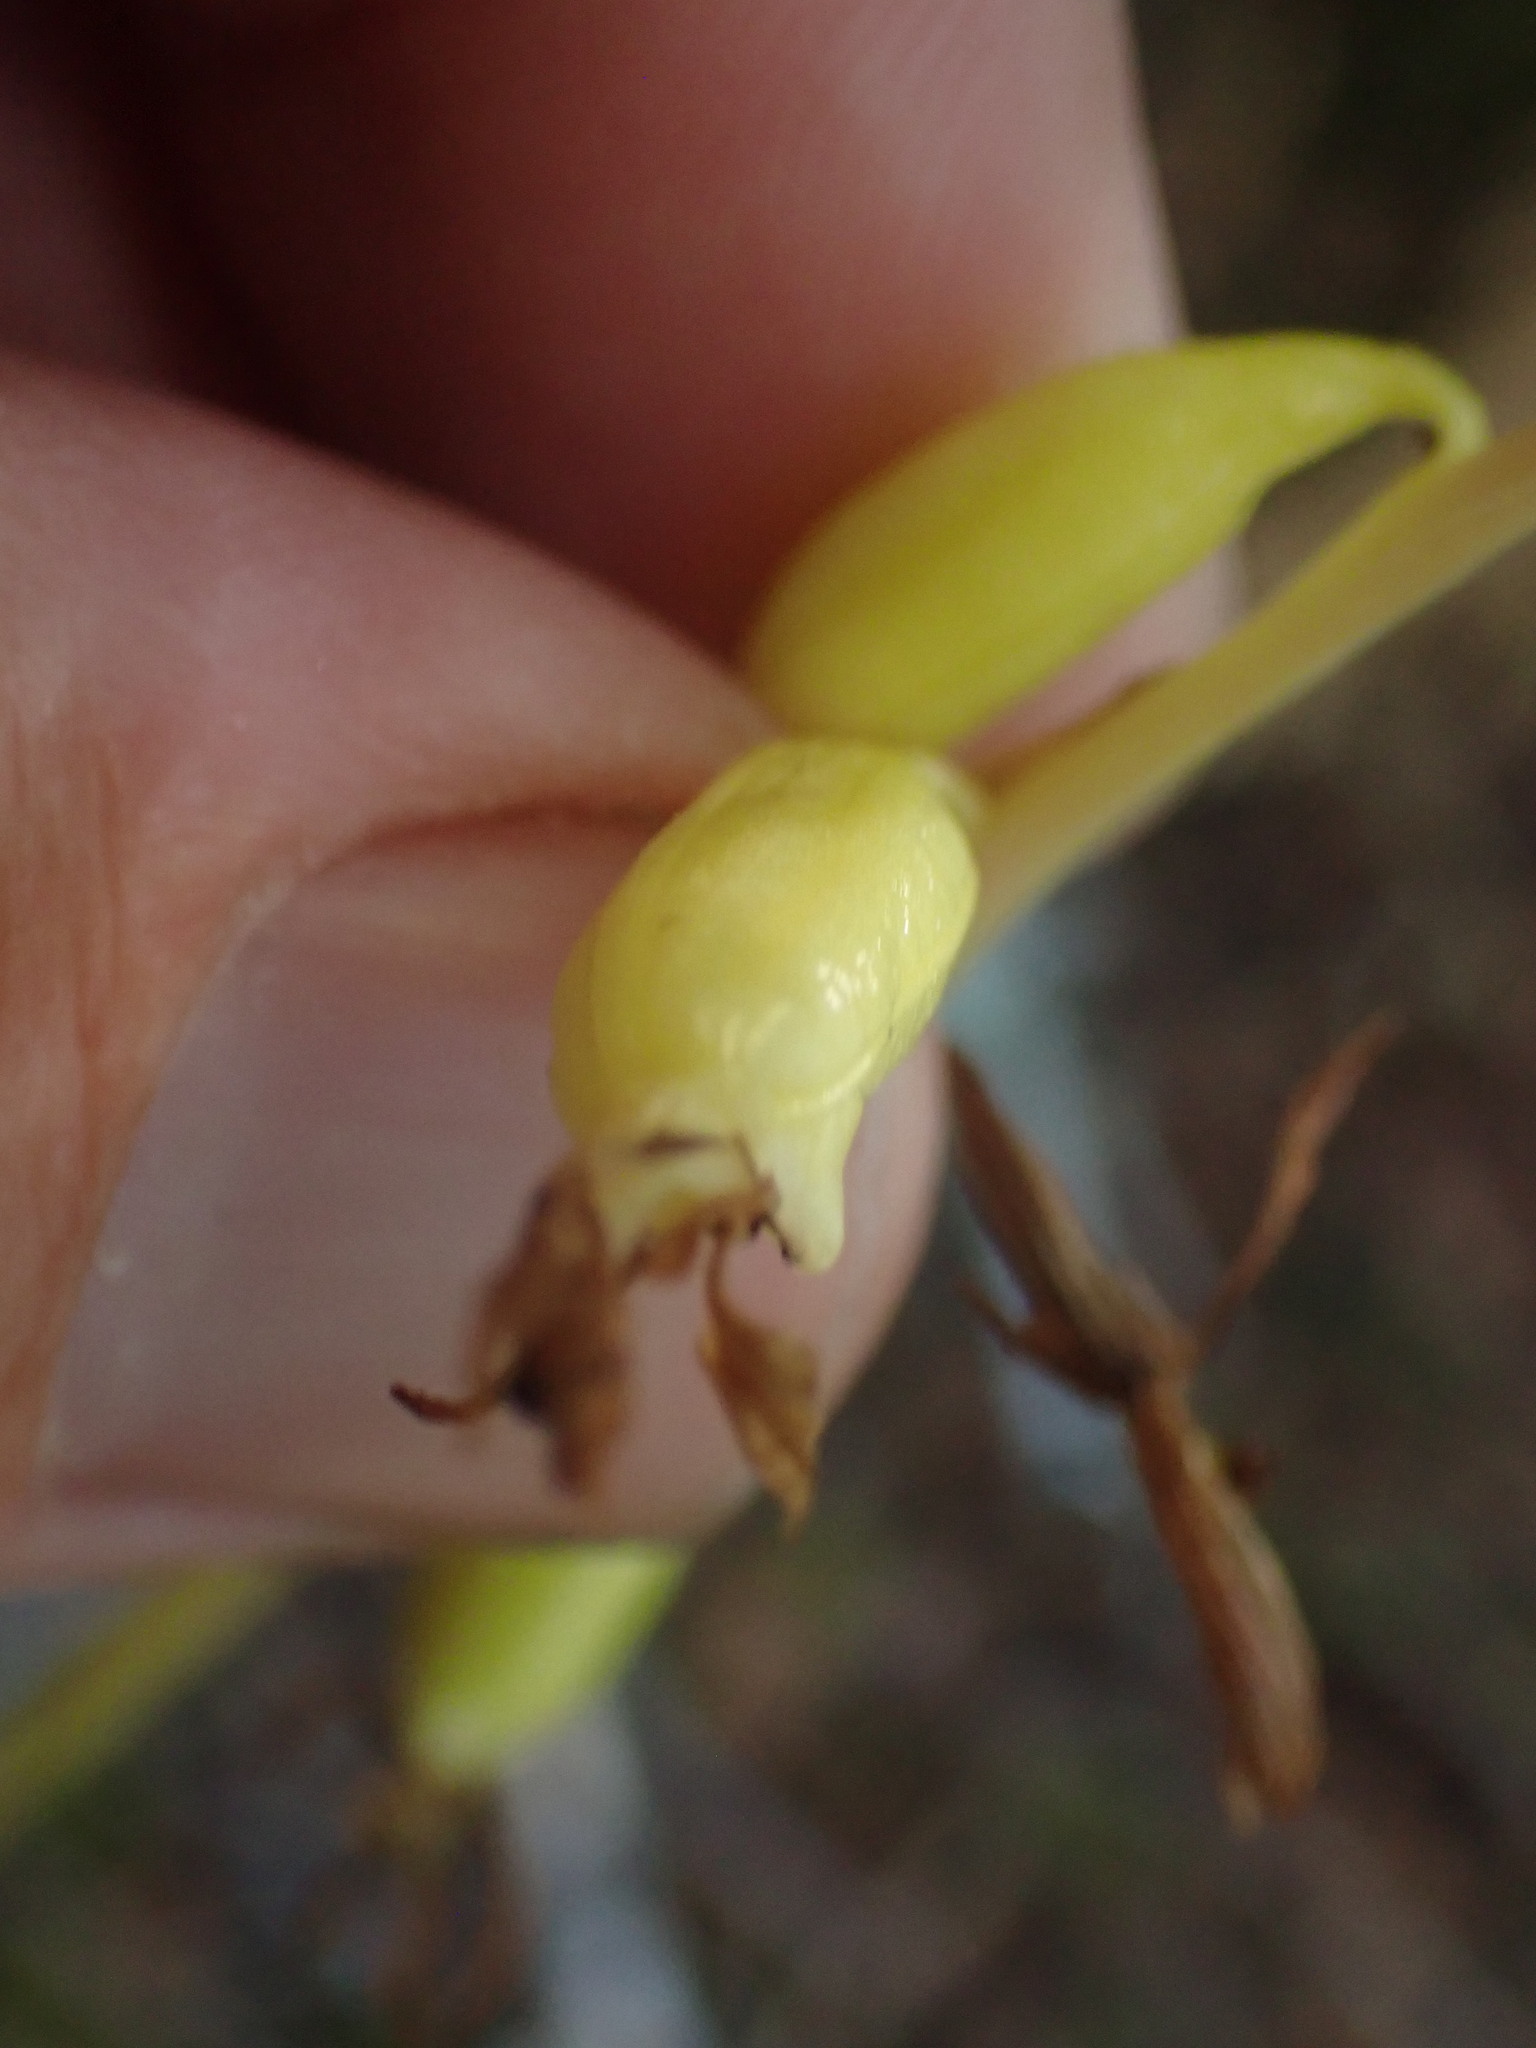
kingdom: Plantae
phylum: Tracheophyta
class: Liliopsida
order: Asparagales
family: Orchidaceae
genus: Corallorhiza
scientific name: Corallorhiza mertensiana
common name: Pacific coralroot
